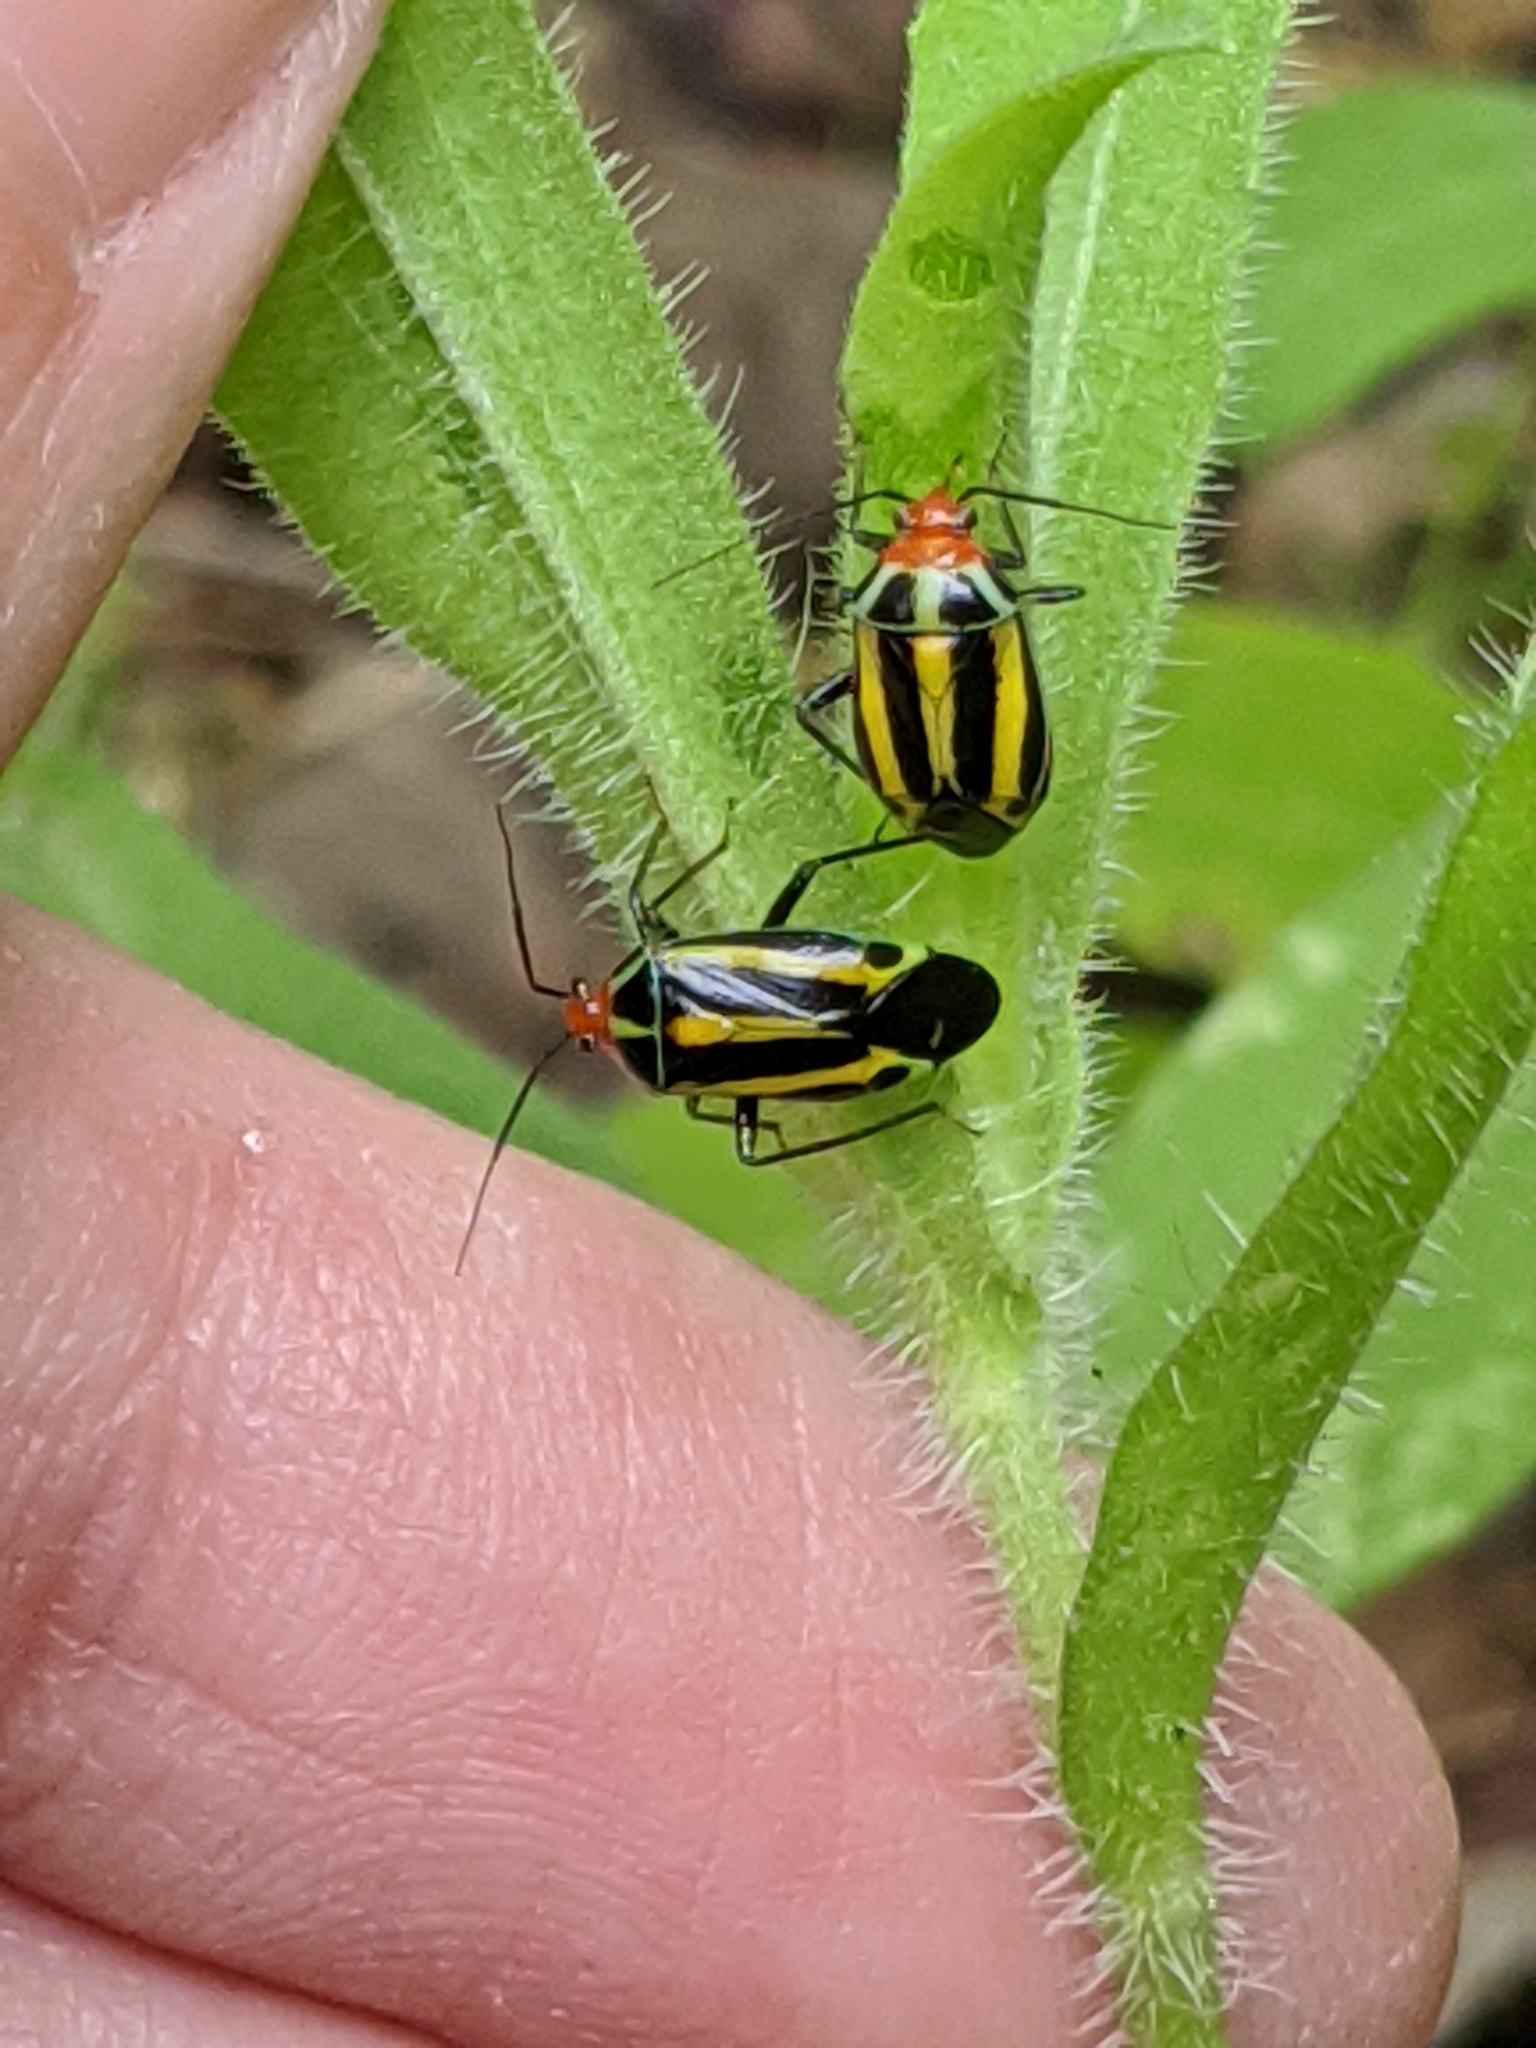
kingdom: Animalia
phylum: Arthropoda
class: Insecta
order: Hemiptera
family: Miridae
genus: Poecilocapsus
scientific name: Poecilocapsus lineatus
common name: Four-lined plant bug
